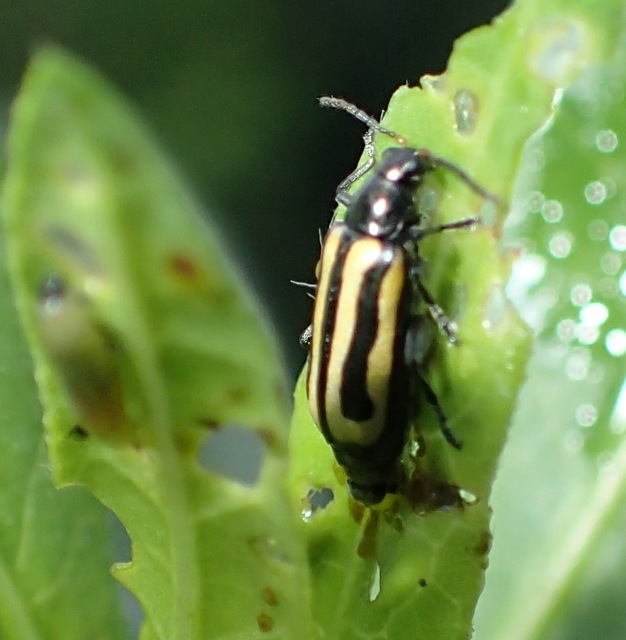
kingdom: Animalia
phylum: Arthropoda
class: Insecta
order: Coleoptera
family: Chrysomelidae
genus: Agasicles
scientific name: Agasicles hygrophila
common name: Alligatorweed flea beetle
